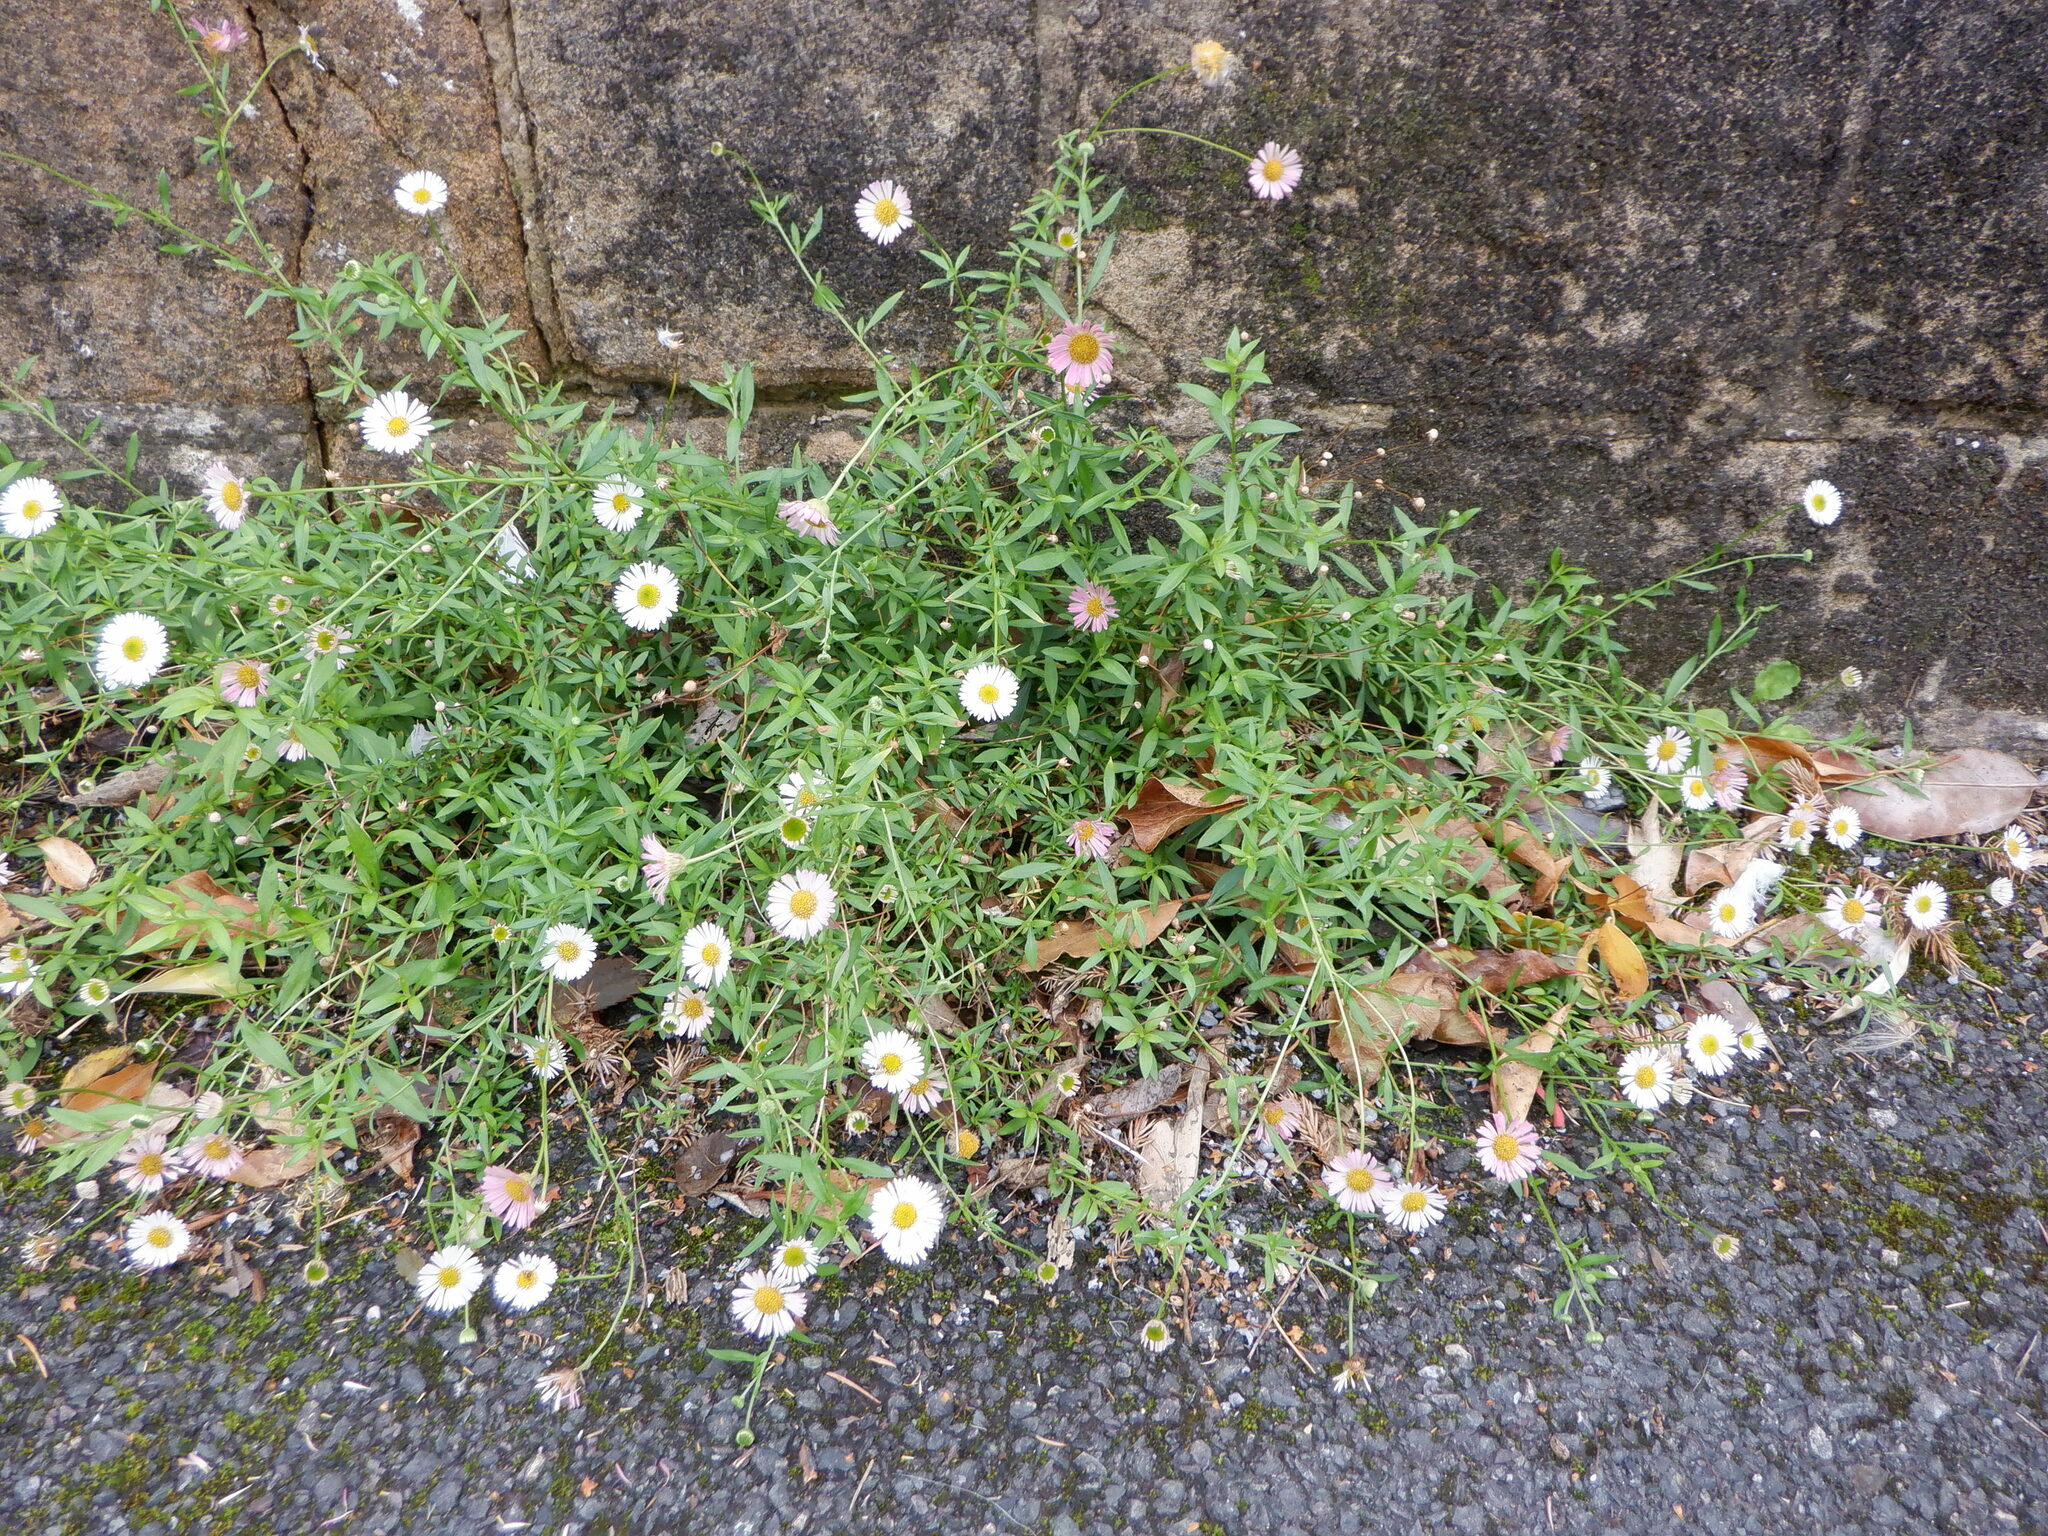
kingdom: Plantae
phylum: Tracheophyta
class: Magnoliopsida
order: Asterales
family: Asteraceae
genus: Erigeron
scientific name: Erigeron karvinskianus
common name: Mexican fleabane
